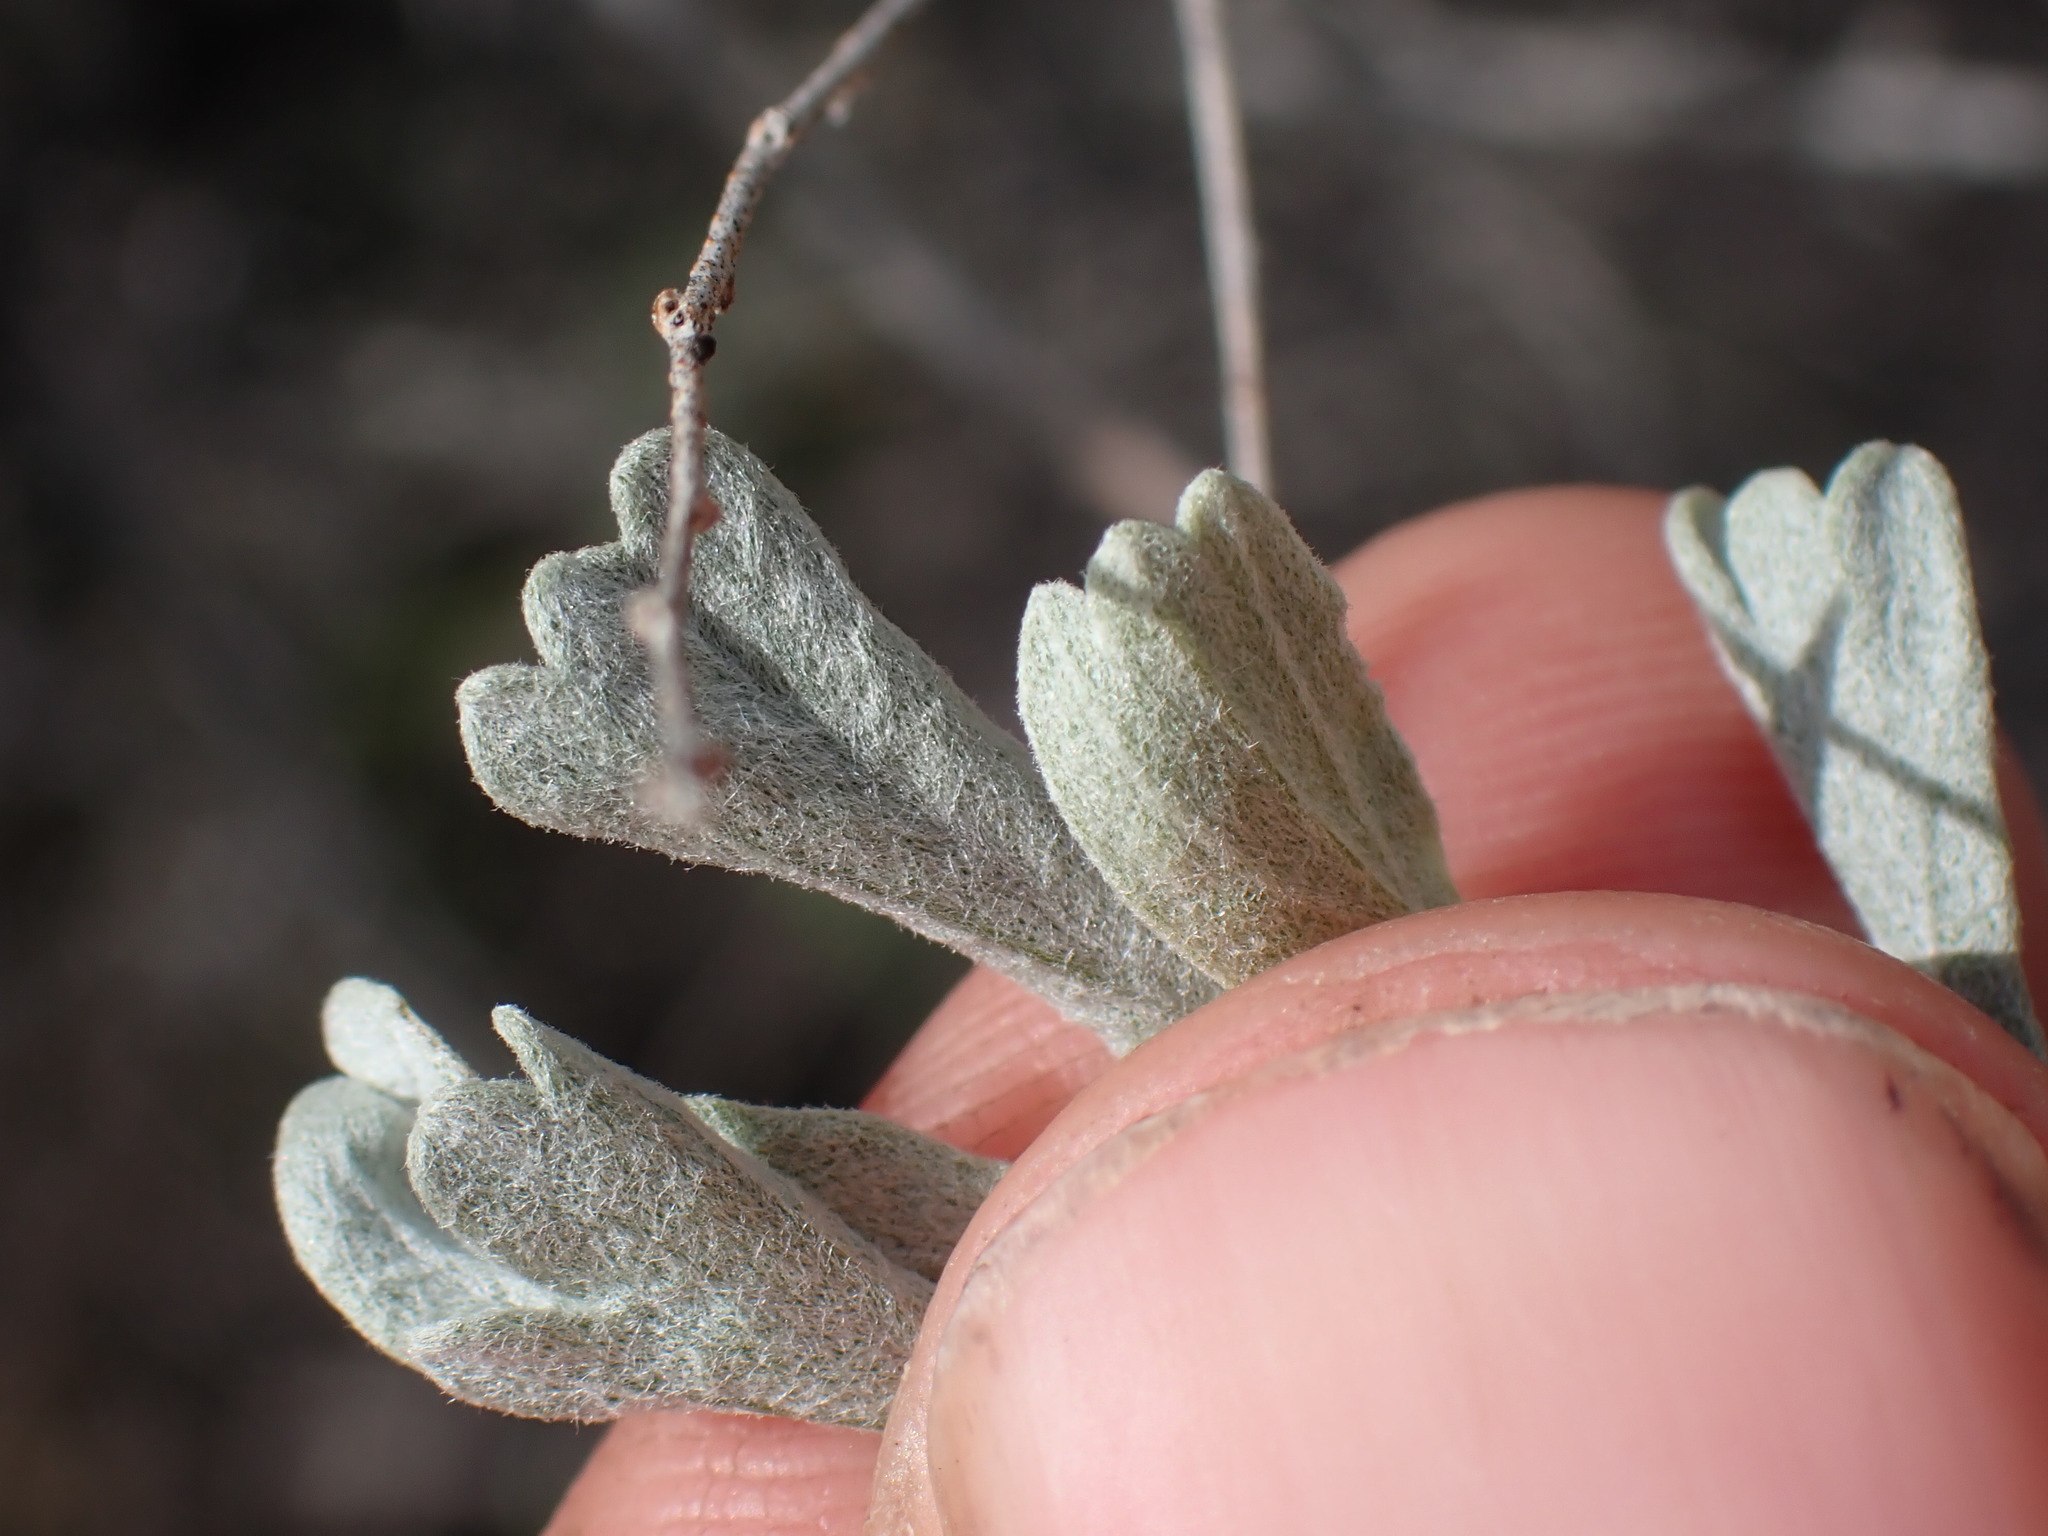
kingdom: Plantae
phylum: Tracheophyta
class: Magnoliopsida
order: Asterales
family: Asteraceae
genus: Artemisia
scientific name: Artemisia tridentata
